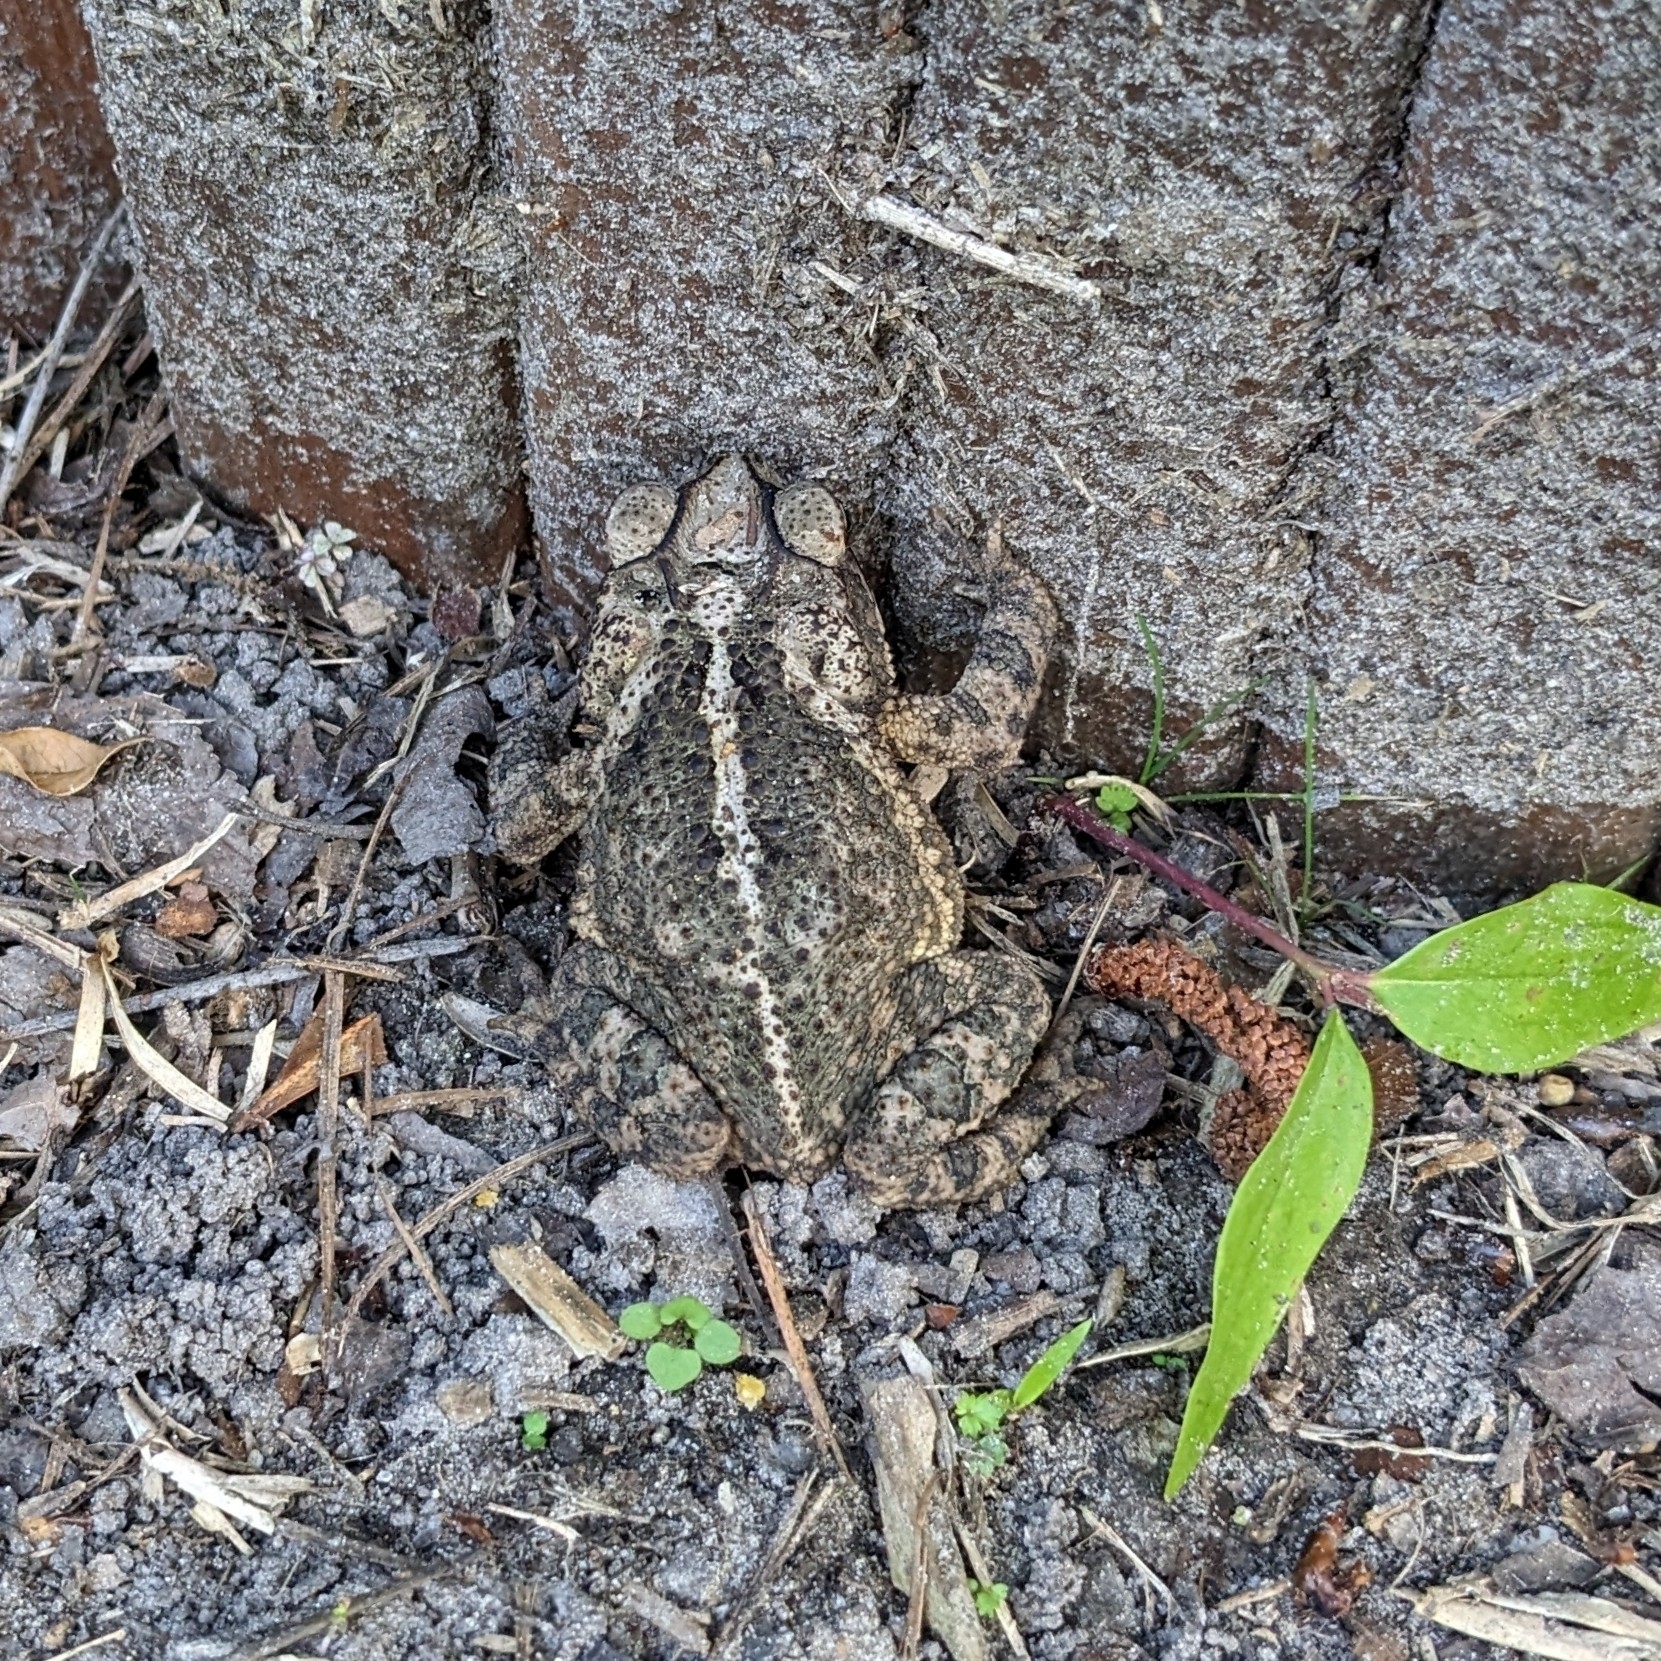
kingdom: Animalia
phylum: Chordata
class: Amphibia
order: Anura
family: Bufonidae
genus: Incilius
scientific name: Incilius nebulifer
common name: Gulf coast toad
